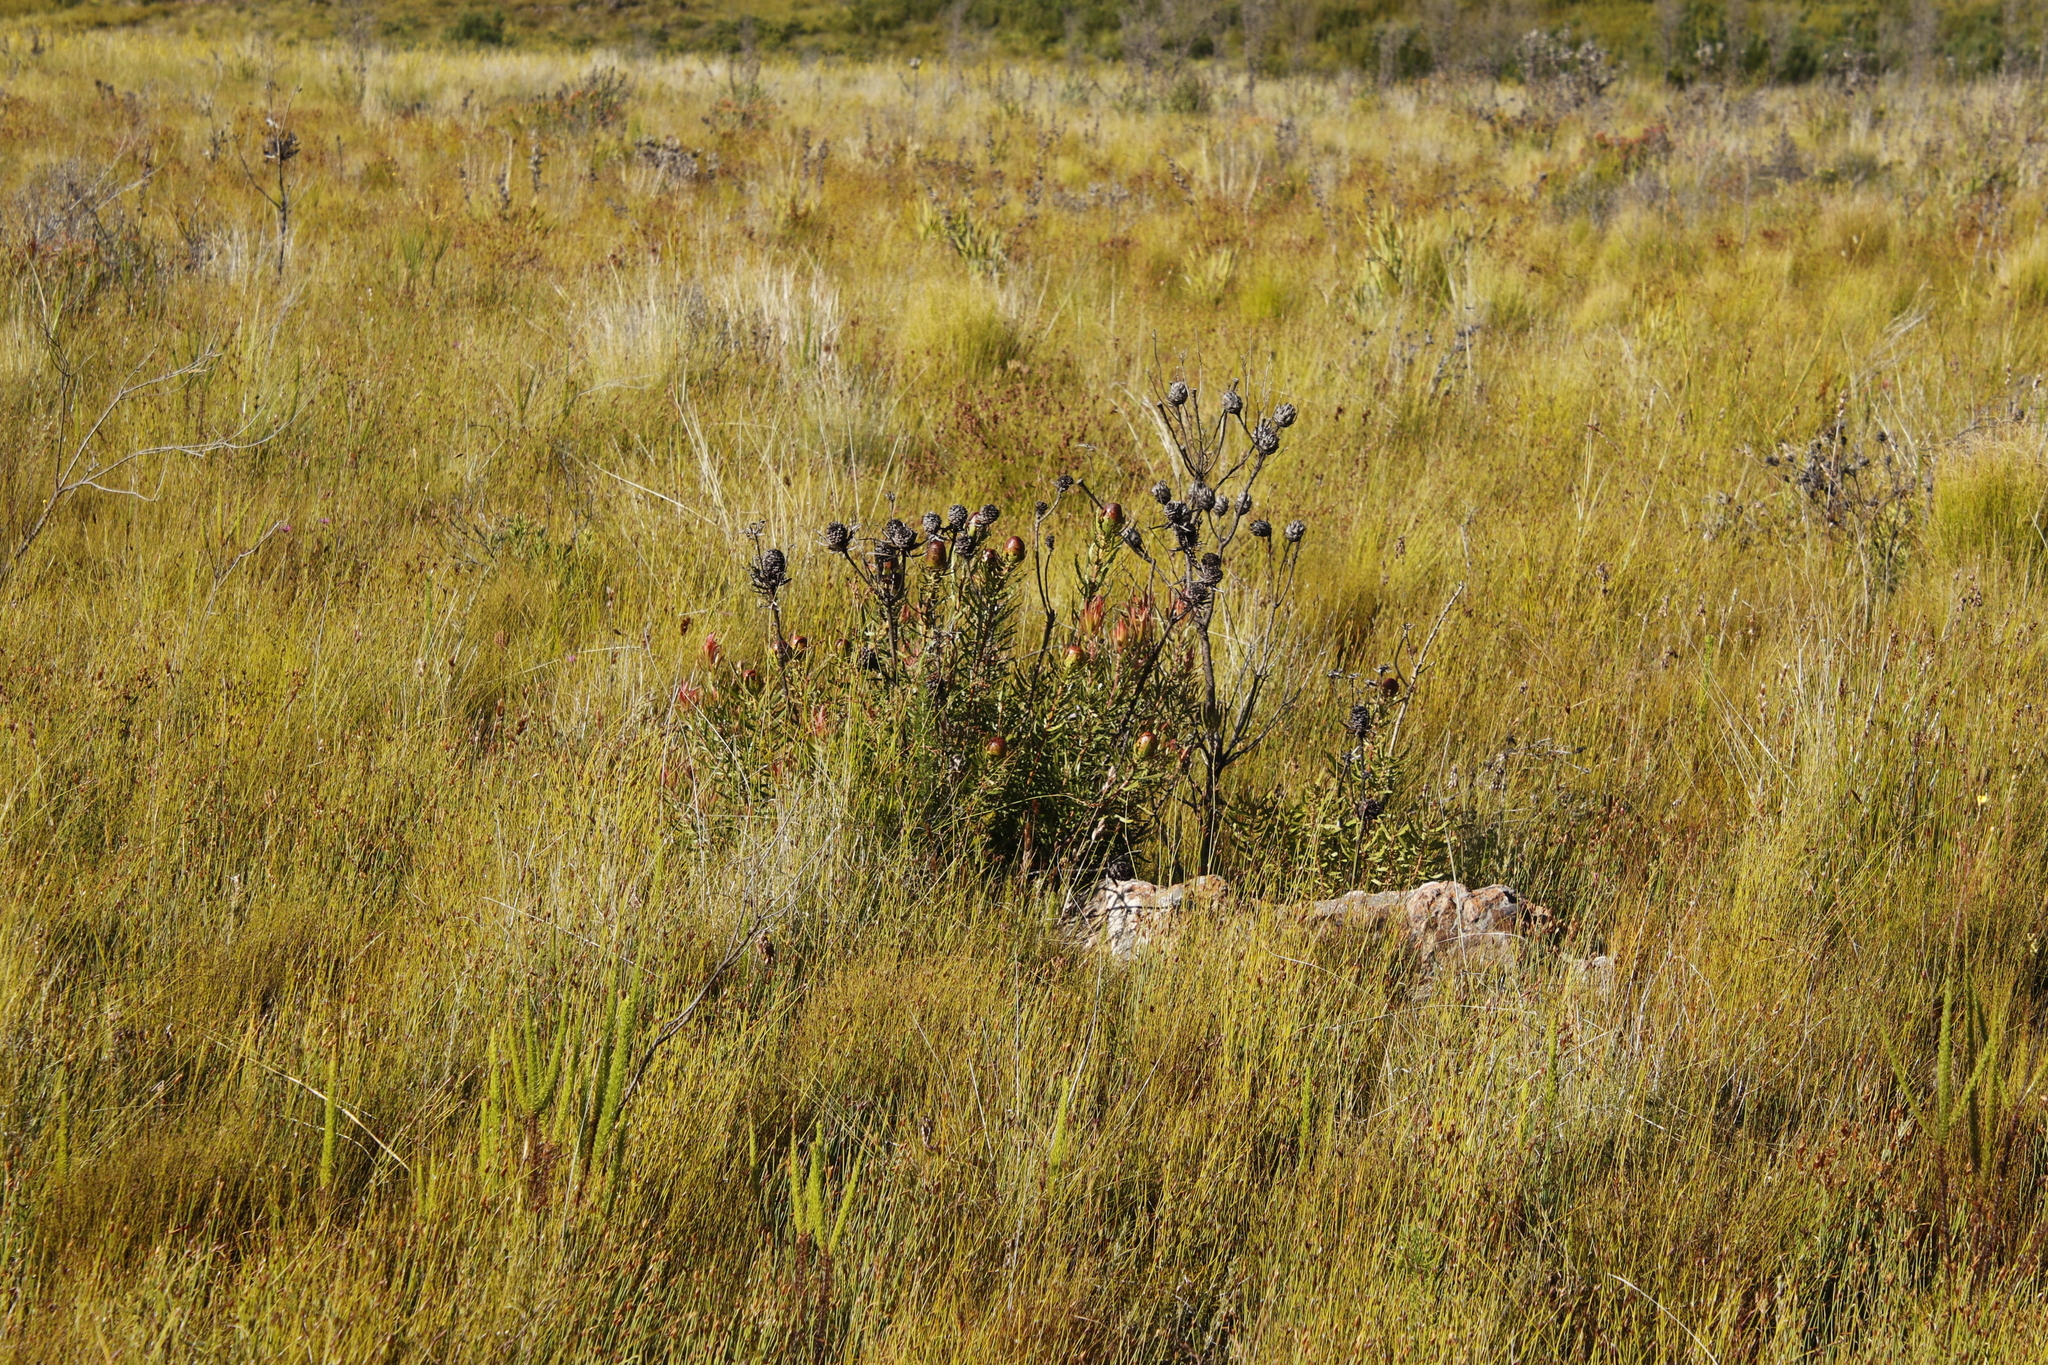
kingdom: Plantae
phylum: Tracheophyta
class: Magnoliopsida
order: Proteales
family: Proteaceae
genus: Leucadendron
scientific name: Leucadendron spissifolium
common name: Spear-leaf conebush
